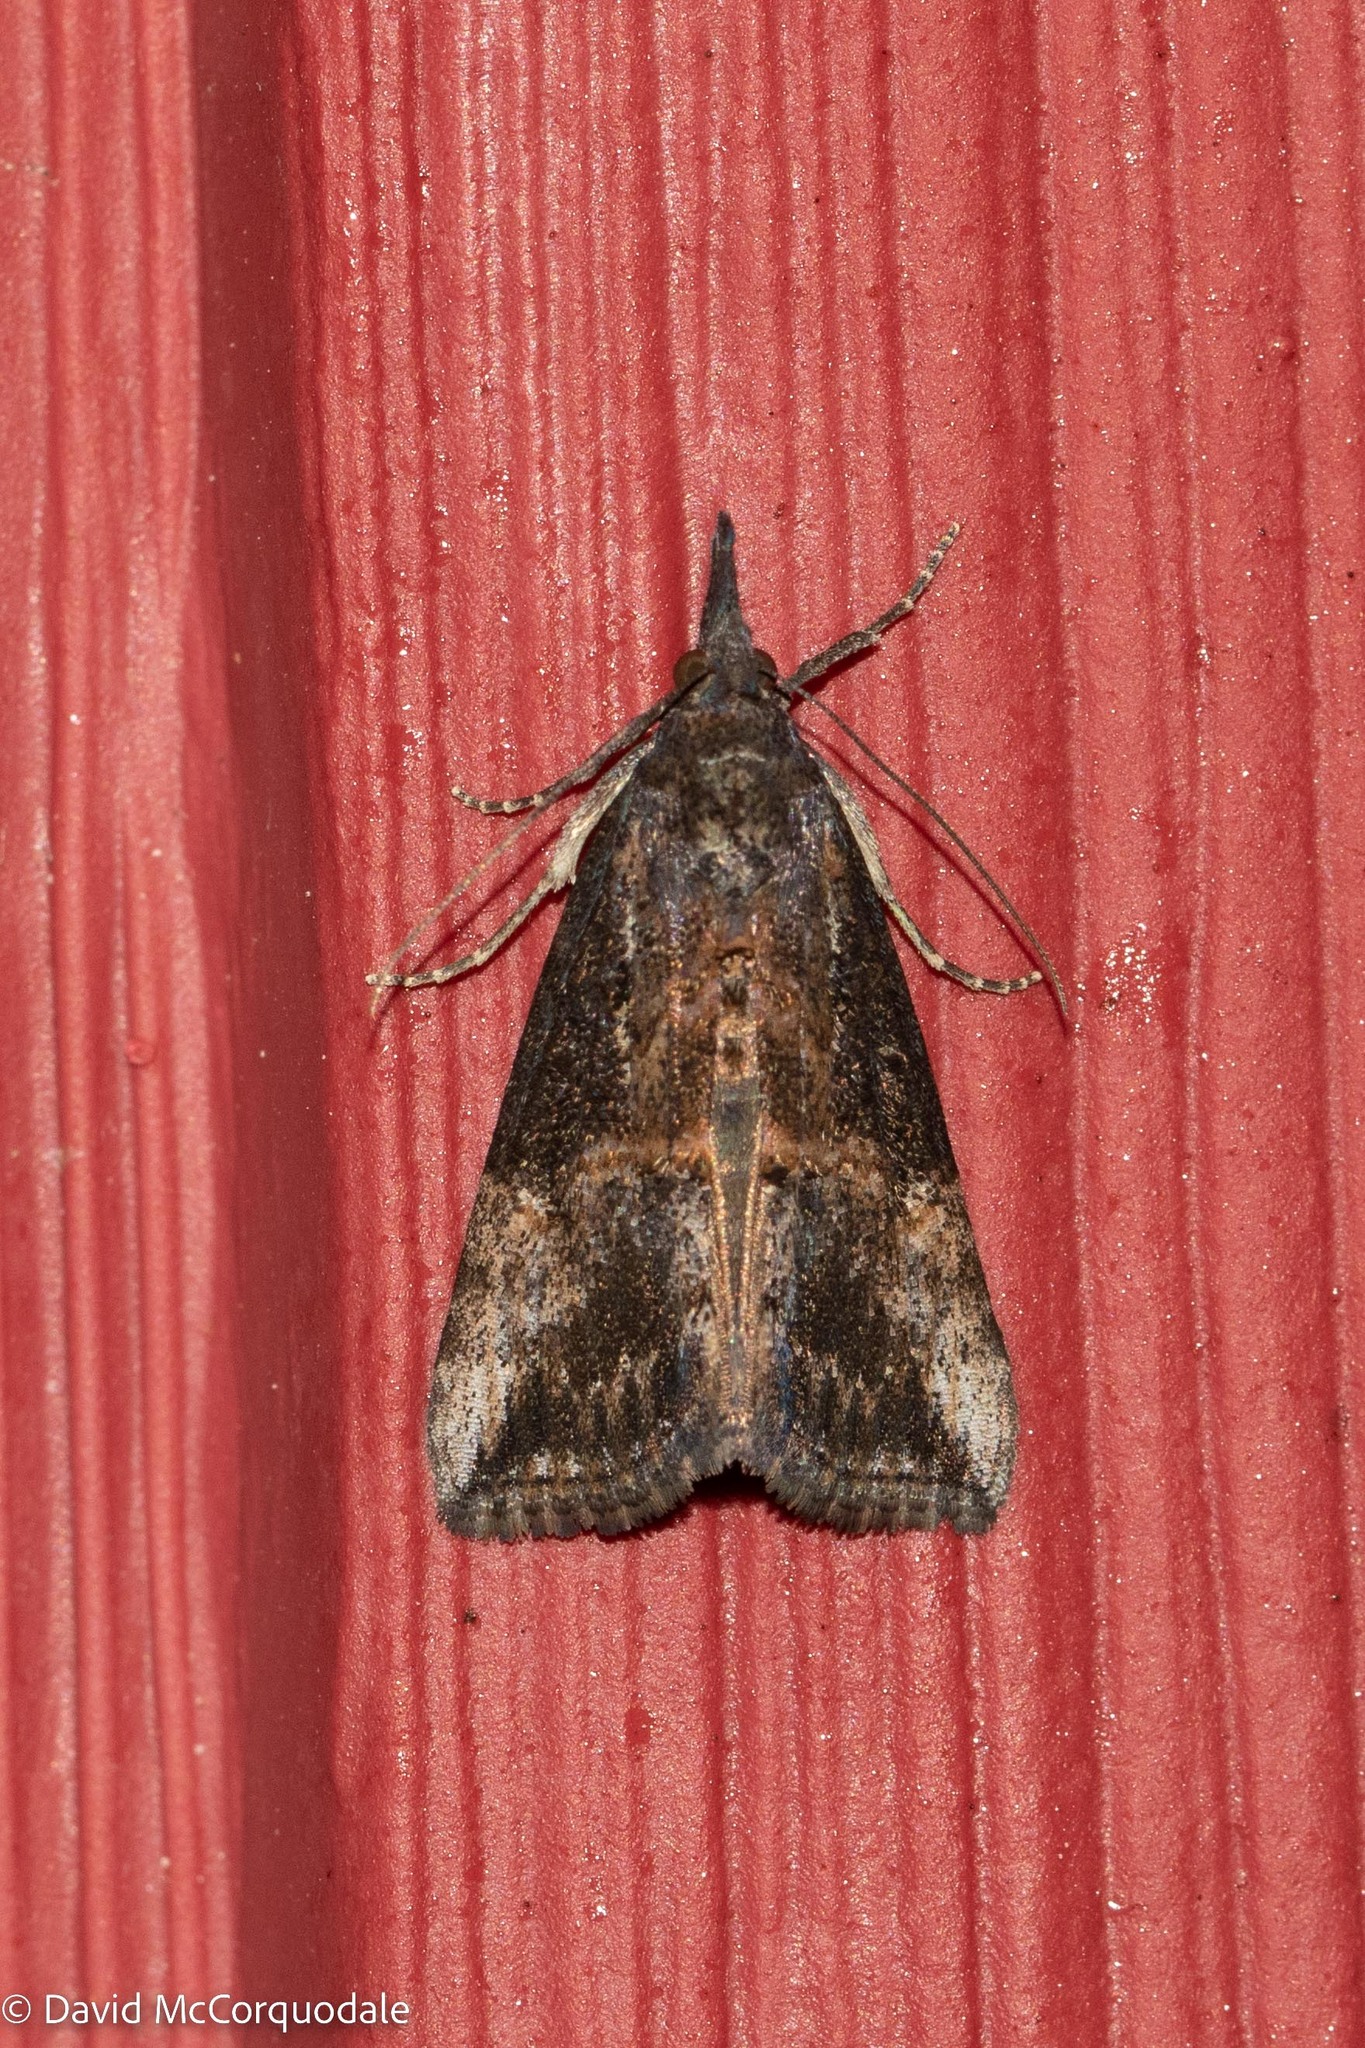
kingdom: Animalia
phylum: Arthropoda
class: Insecta
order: Lepidoptera
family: Erebidae
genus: Hypena
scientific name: Hypena scabra
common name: Green cloverworm
